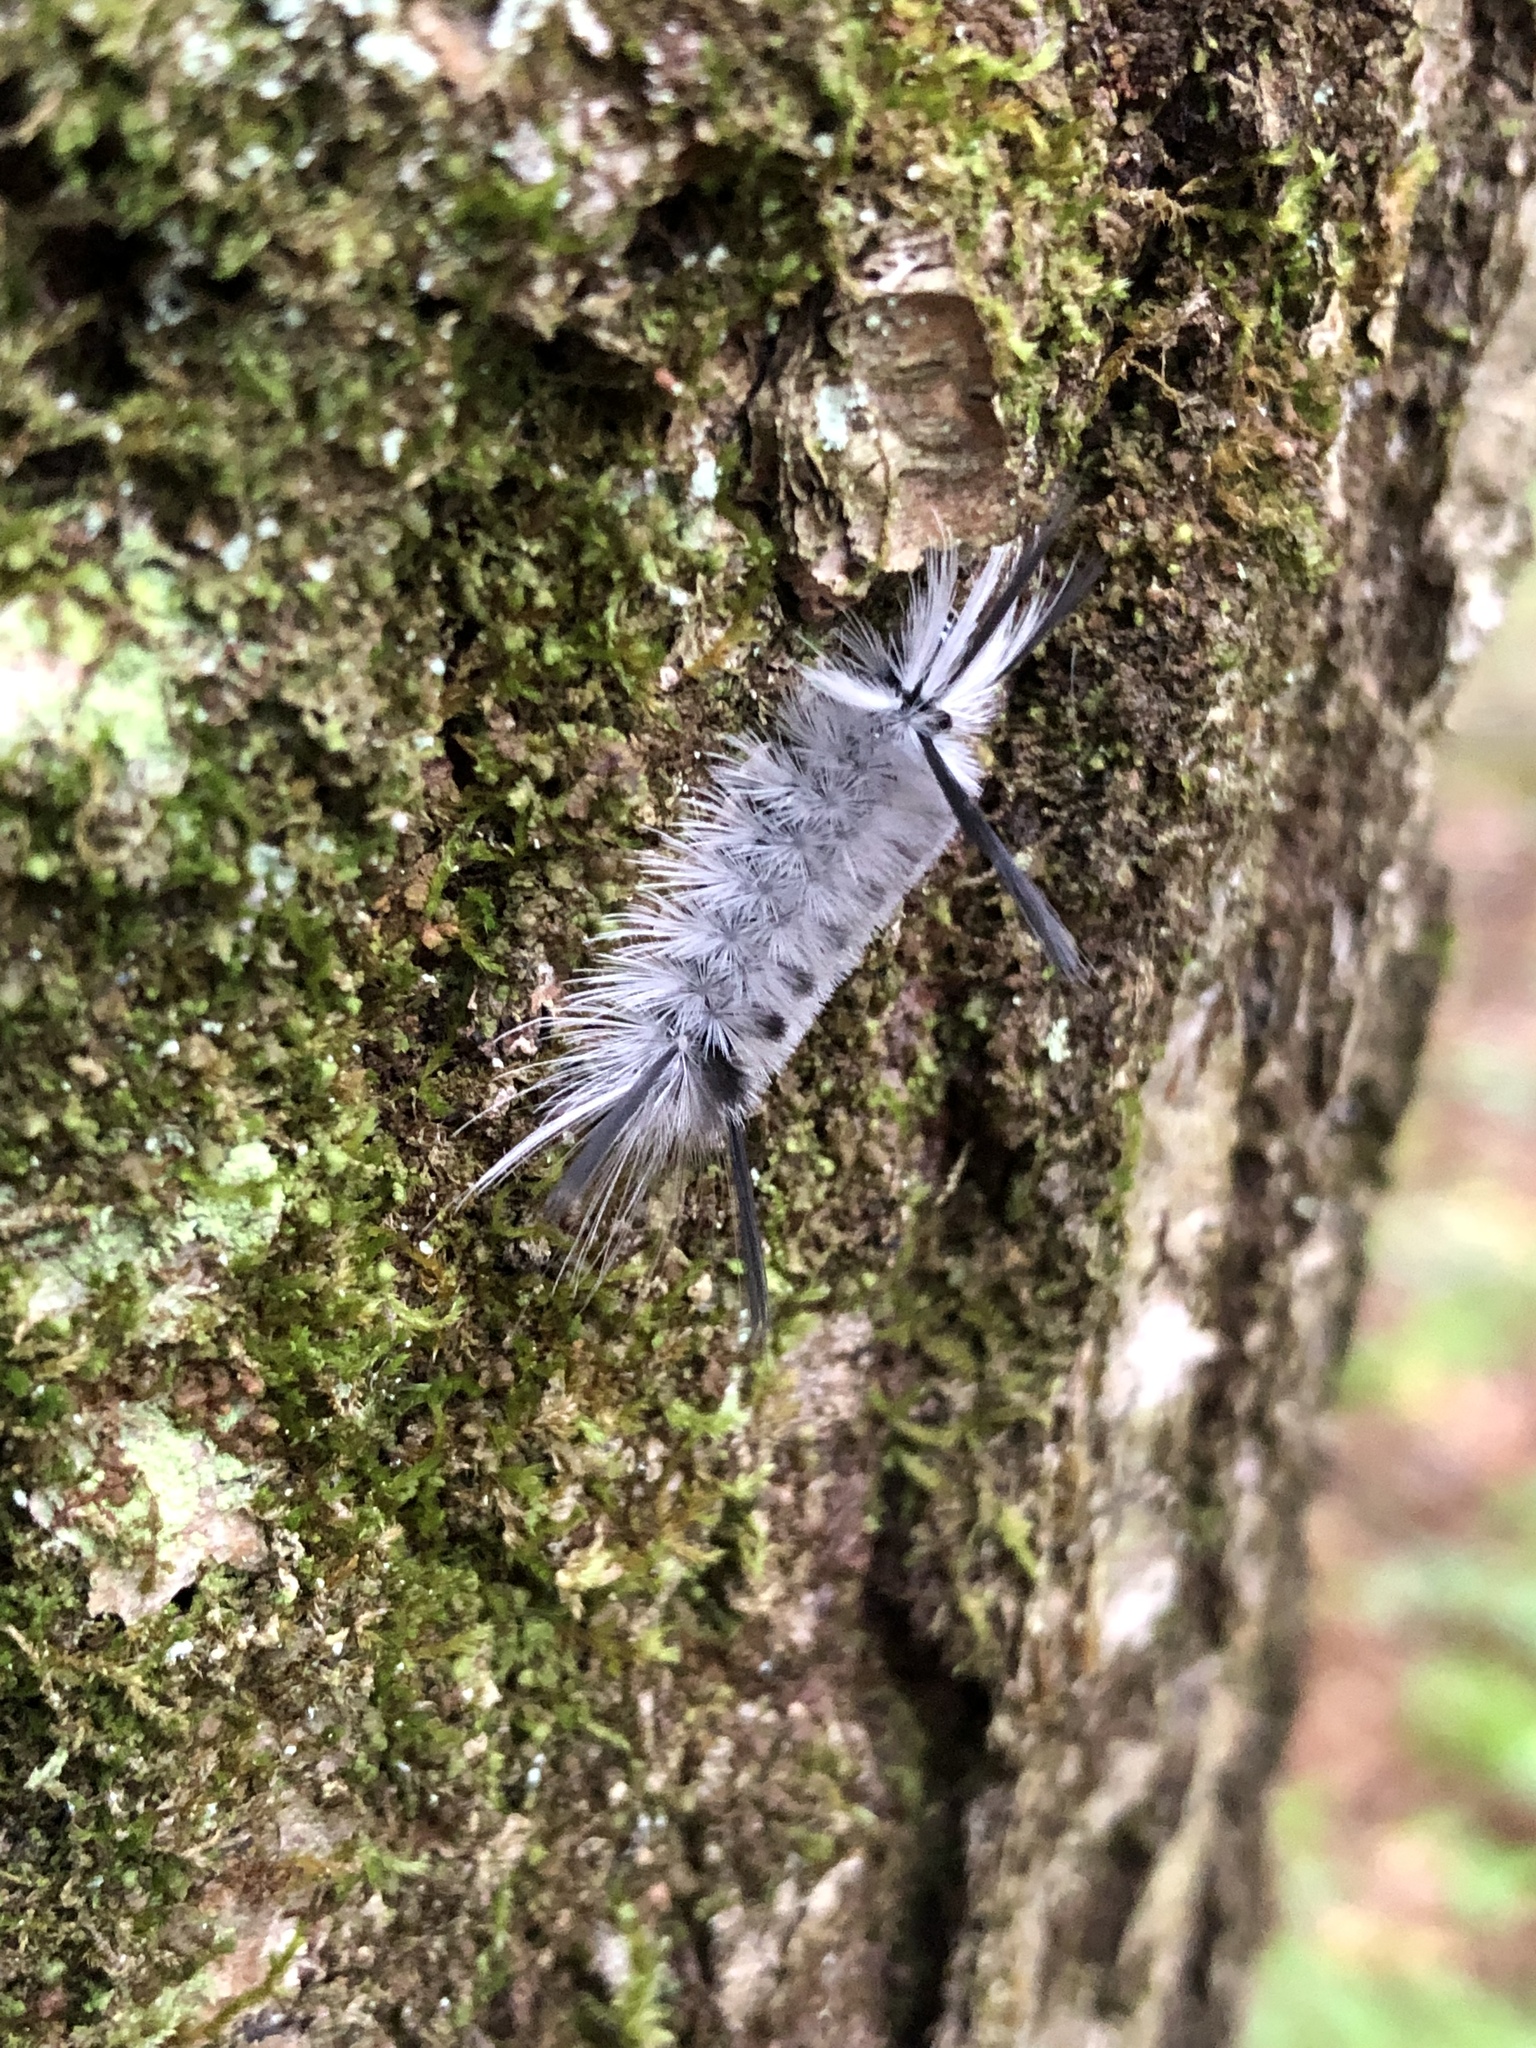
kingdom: Animalia
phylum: Arthropoda
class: Insecta
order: Lepidoptera
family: Erebidae
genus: Halysidota
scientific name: Halysidota tessellaris
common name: Banded tussock moth
